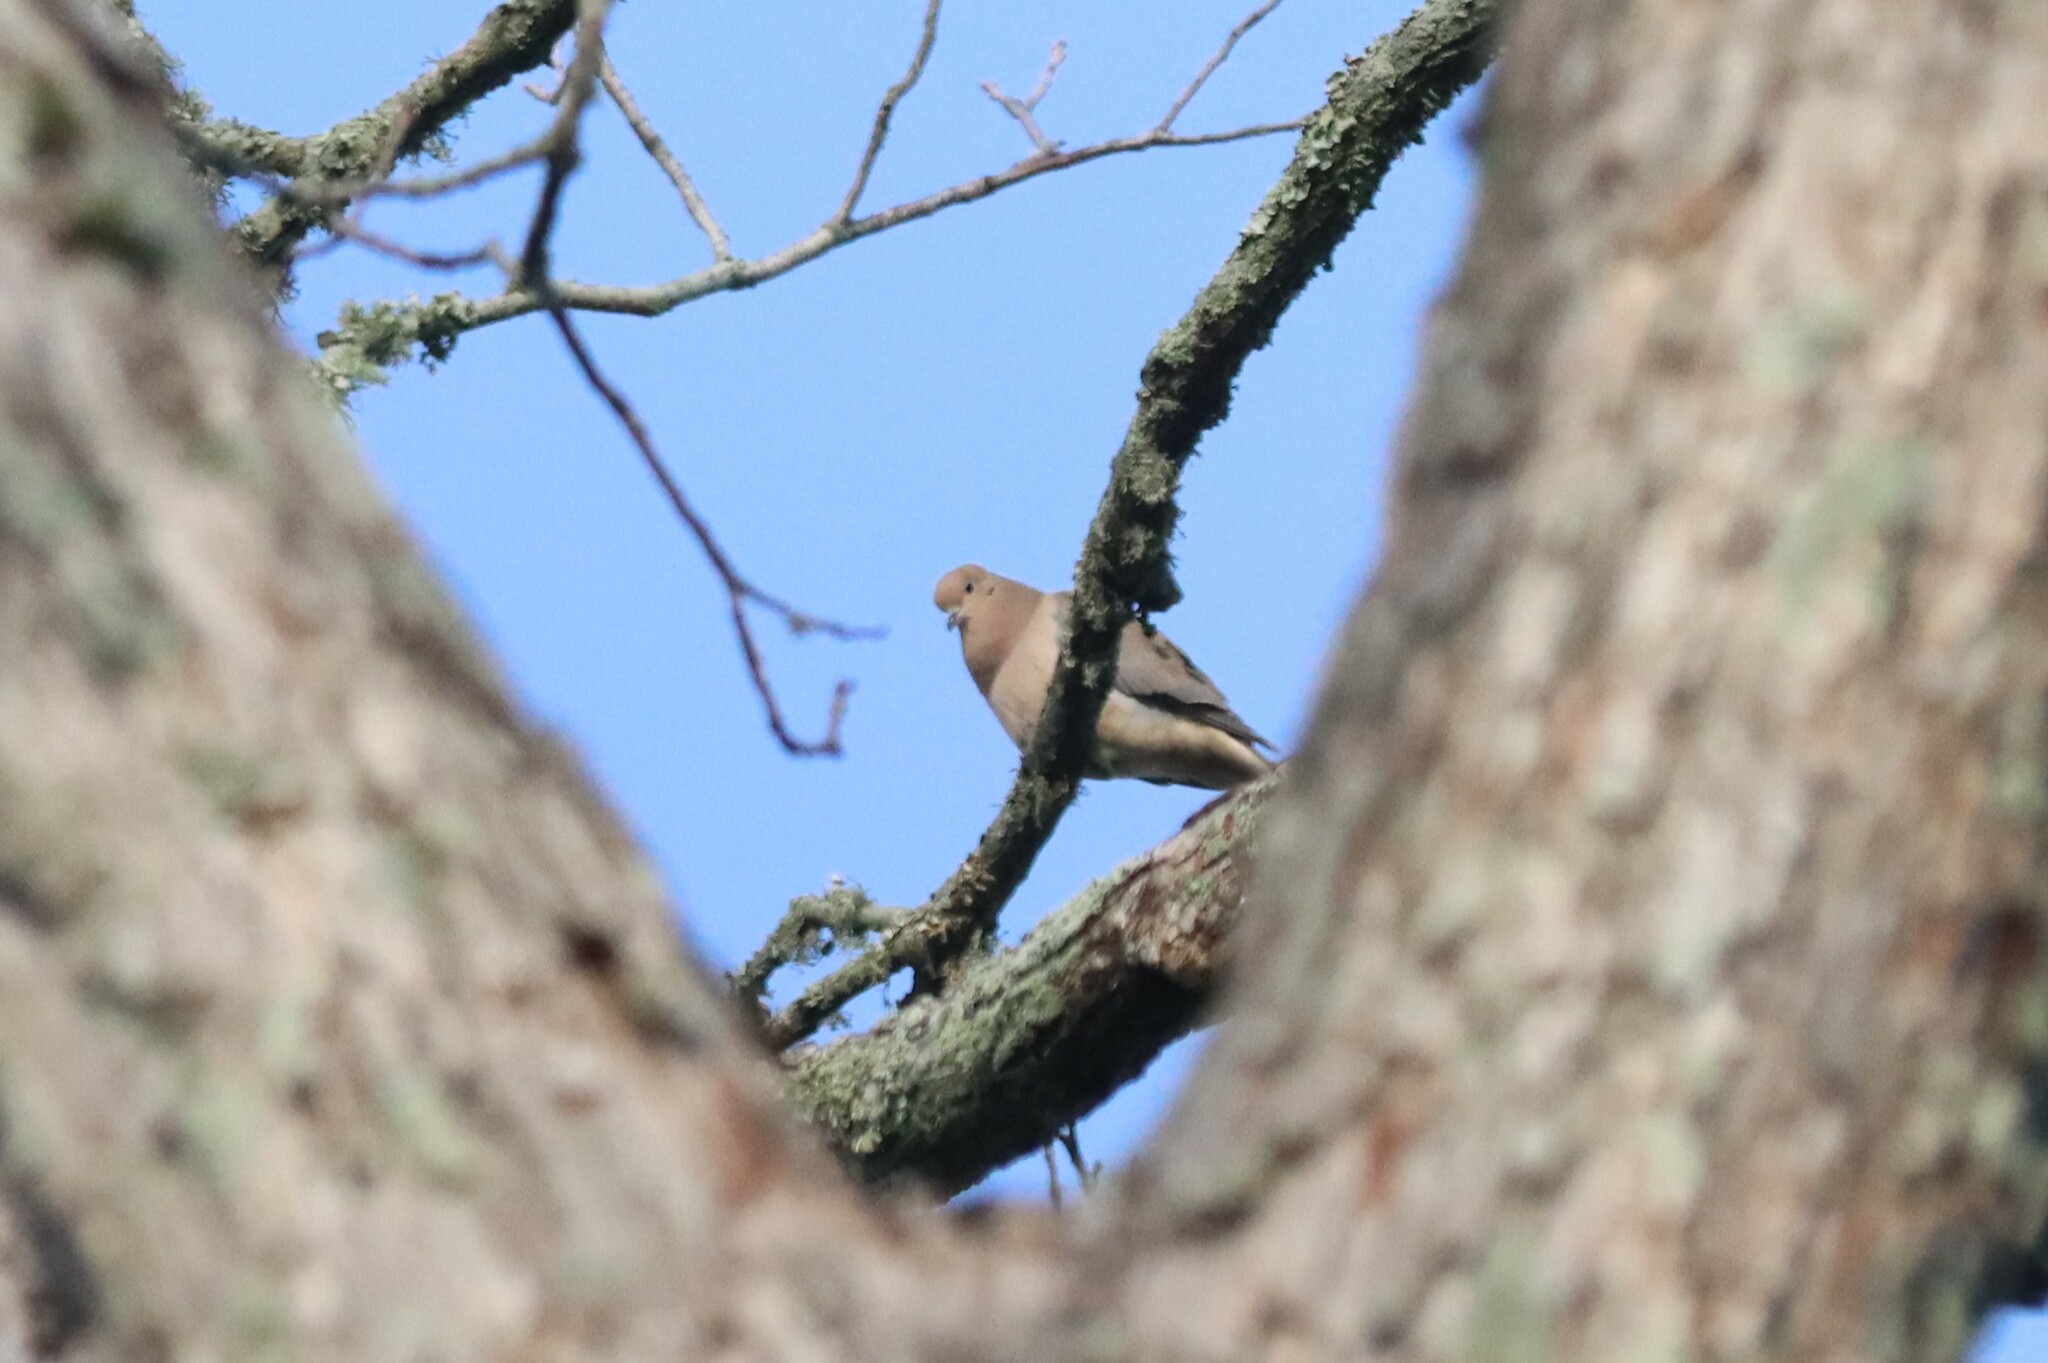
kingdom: Animalia
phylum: Chordata
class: Aves
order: Columbiformes
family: Columbidae
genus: Zenaida
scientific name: Zenaida macroura
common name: Mourning dove
